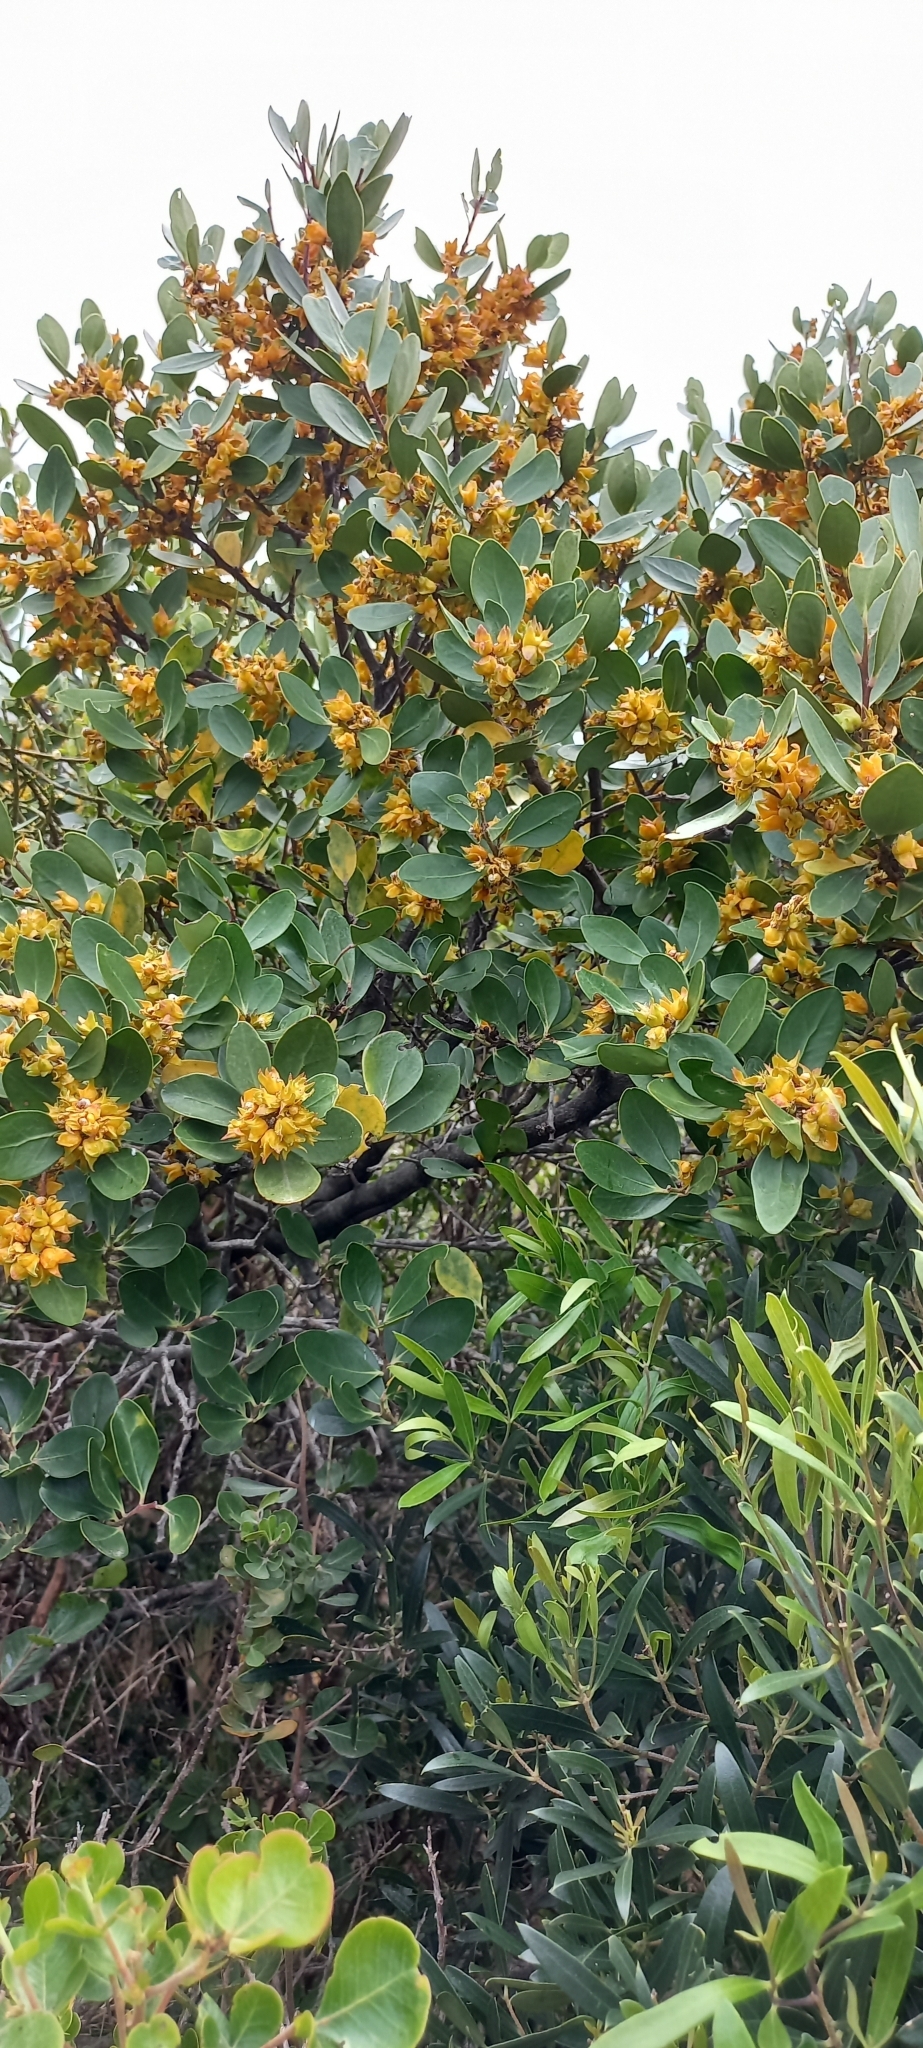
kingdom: Plantae
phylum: Tracheophyta
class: Magnoliopsida
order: Celastrales
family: Celastraceae
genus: Pterocelastrus
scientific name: Pterocelastrus tricuspidatus
